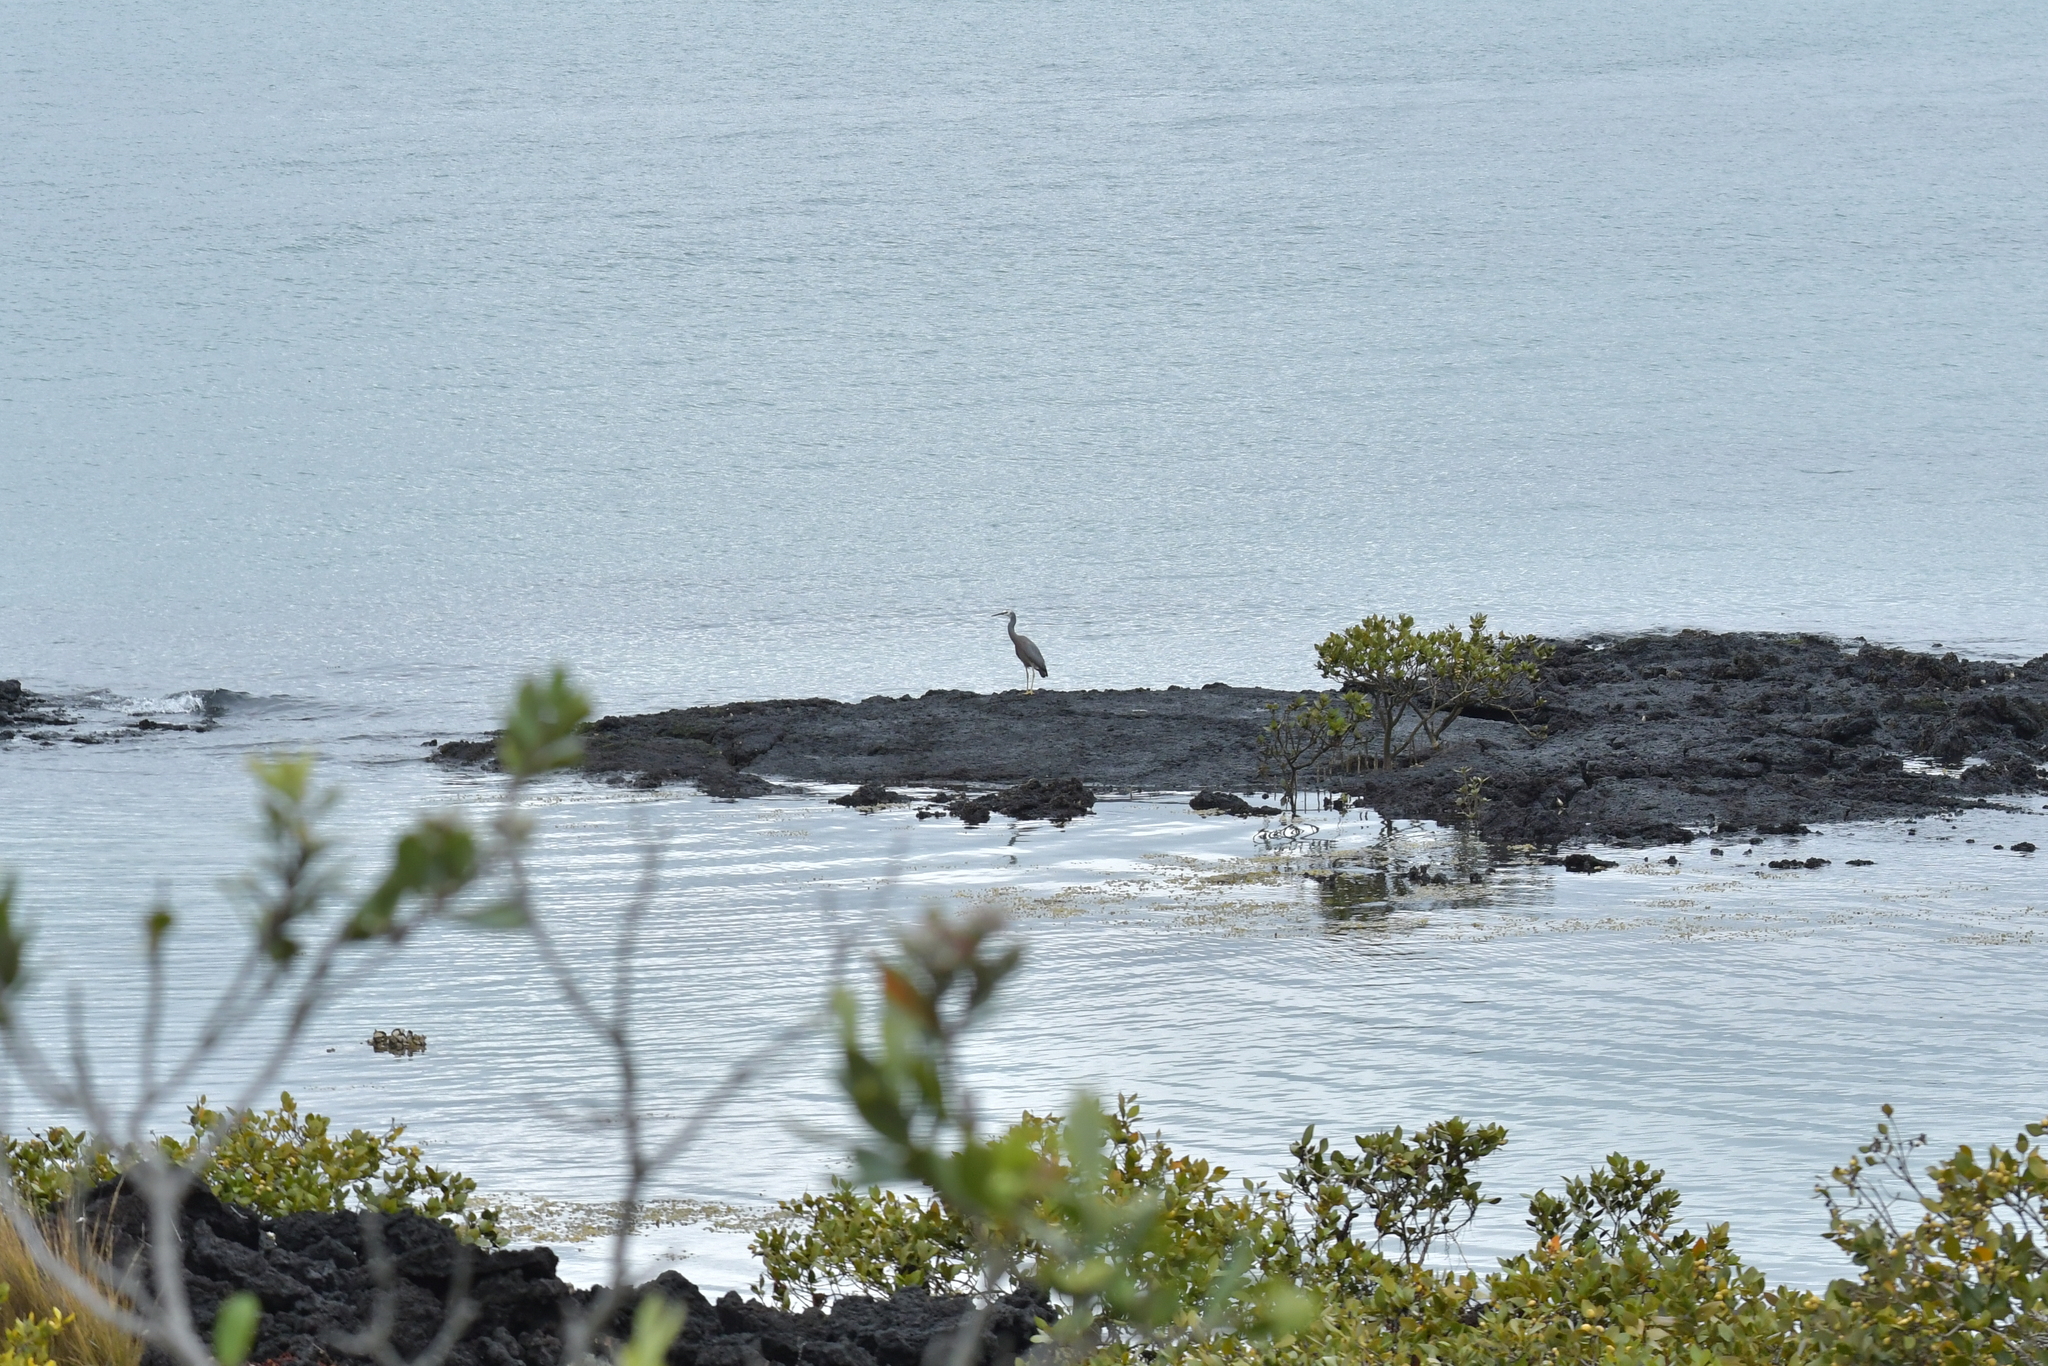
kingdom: Animalia
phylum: Chordata
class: Aves
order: Pelecaniformes
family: Ardeidae
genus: Egretta
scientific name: Egretta novaehollandiae
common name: White-faced heron
